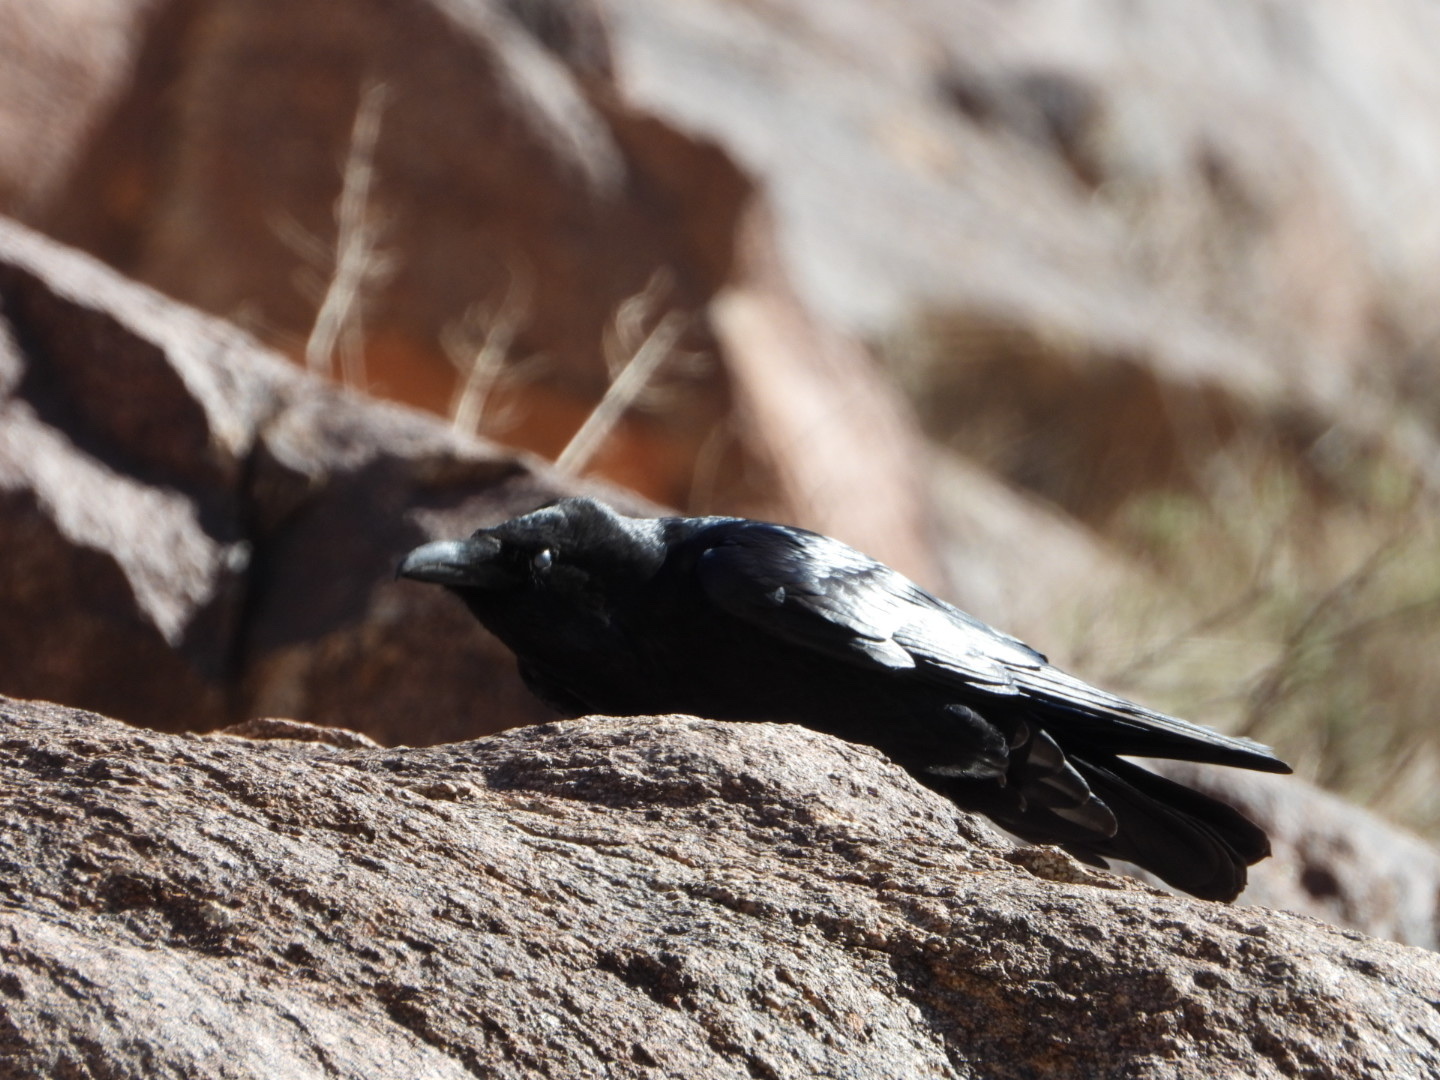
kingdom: Animalia
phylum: Chordata
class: Aves
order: Passeriformes
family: Corvidae
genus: Corvus
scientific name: Corvus corax
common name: Common raven
